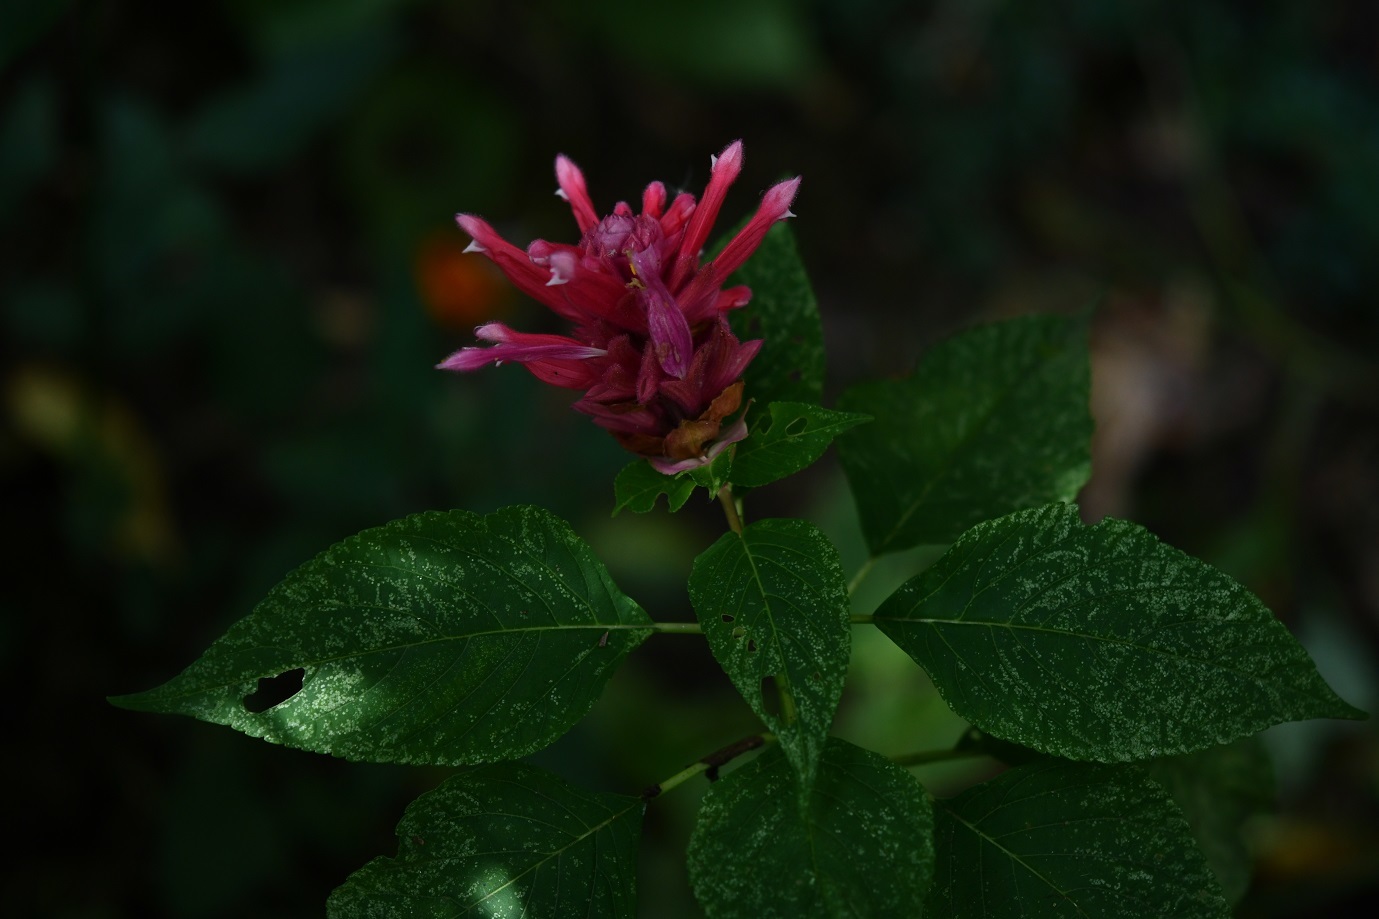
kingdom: Plantae
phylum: Tracheophyta
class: Magnoliopsida
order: Lamiales
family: Lamiaceae
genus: Salvia
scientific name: Salvia wagneriana
